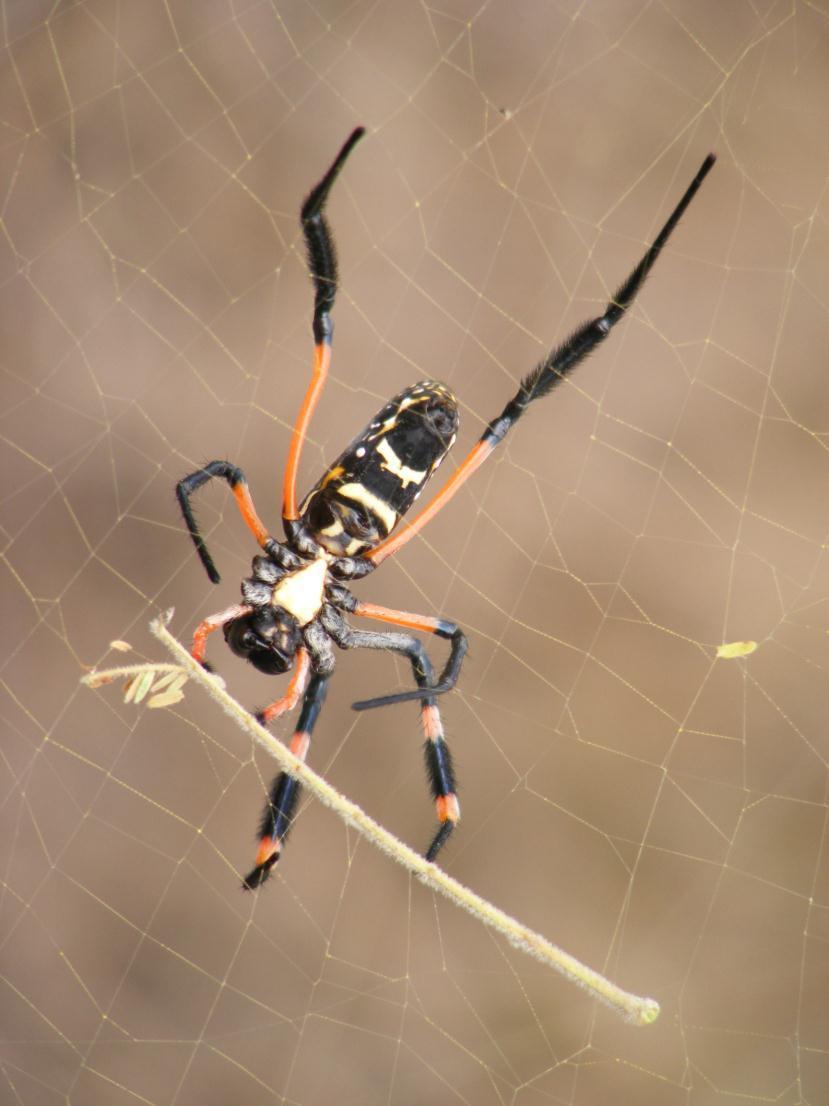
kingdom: Animalia
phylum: Arthropoda
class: Arachnida
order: Araneae
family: Araneidae
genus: Trichonephila
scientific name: Trichonephila senegalensis
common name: Banded golden orb weaver
